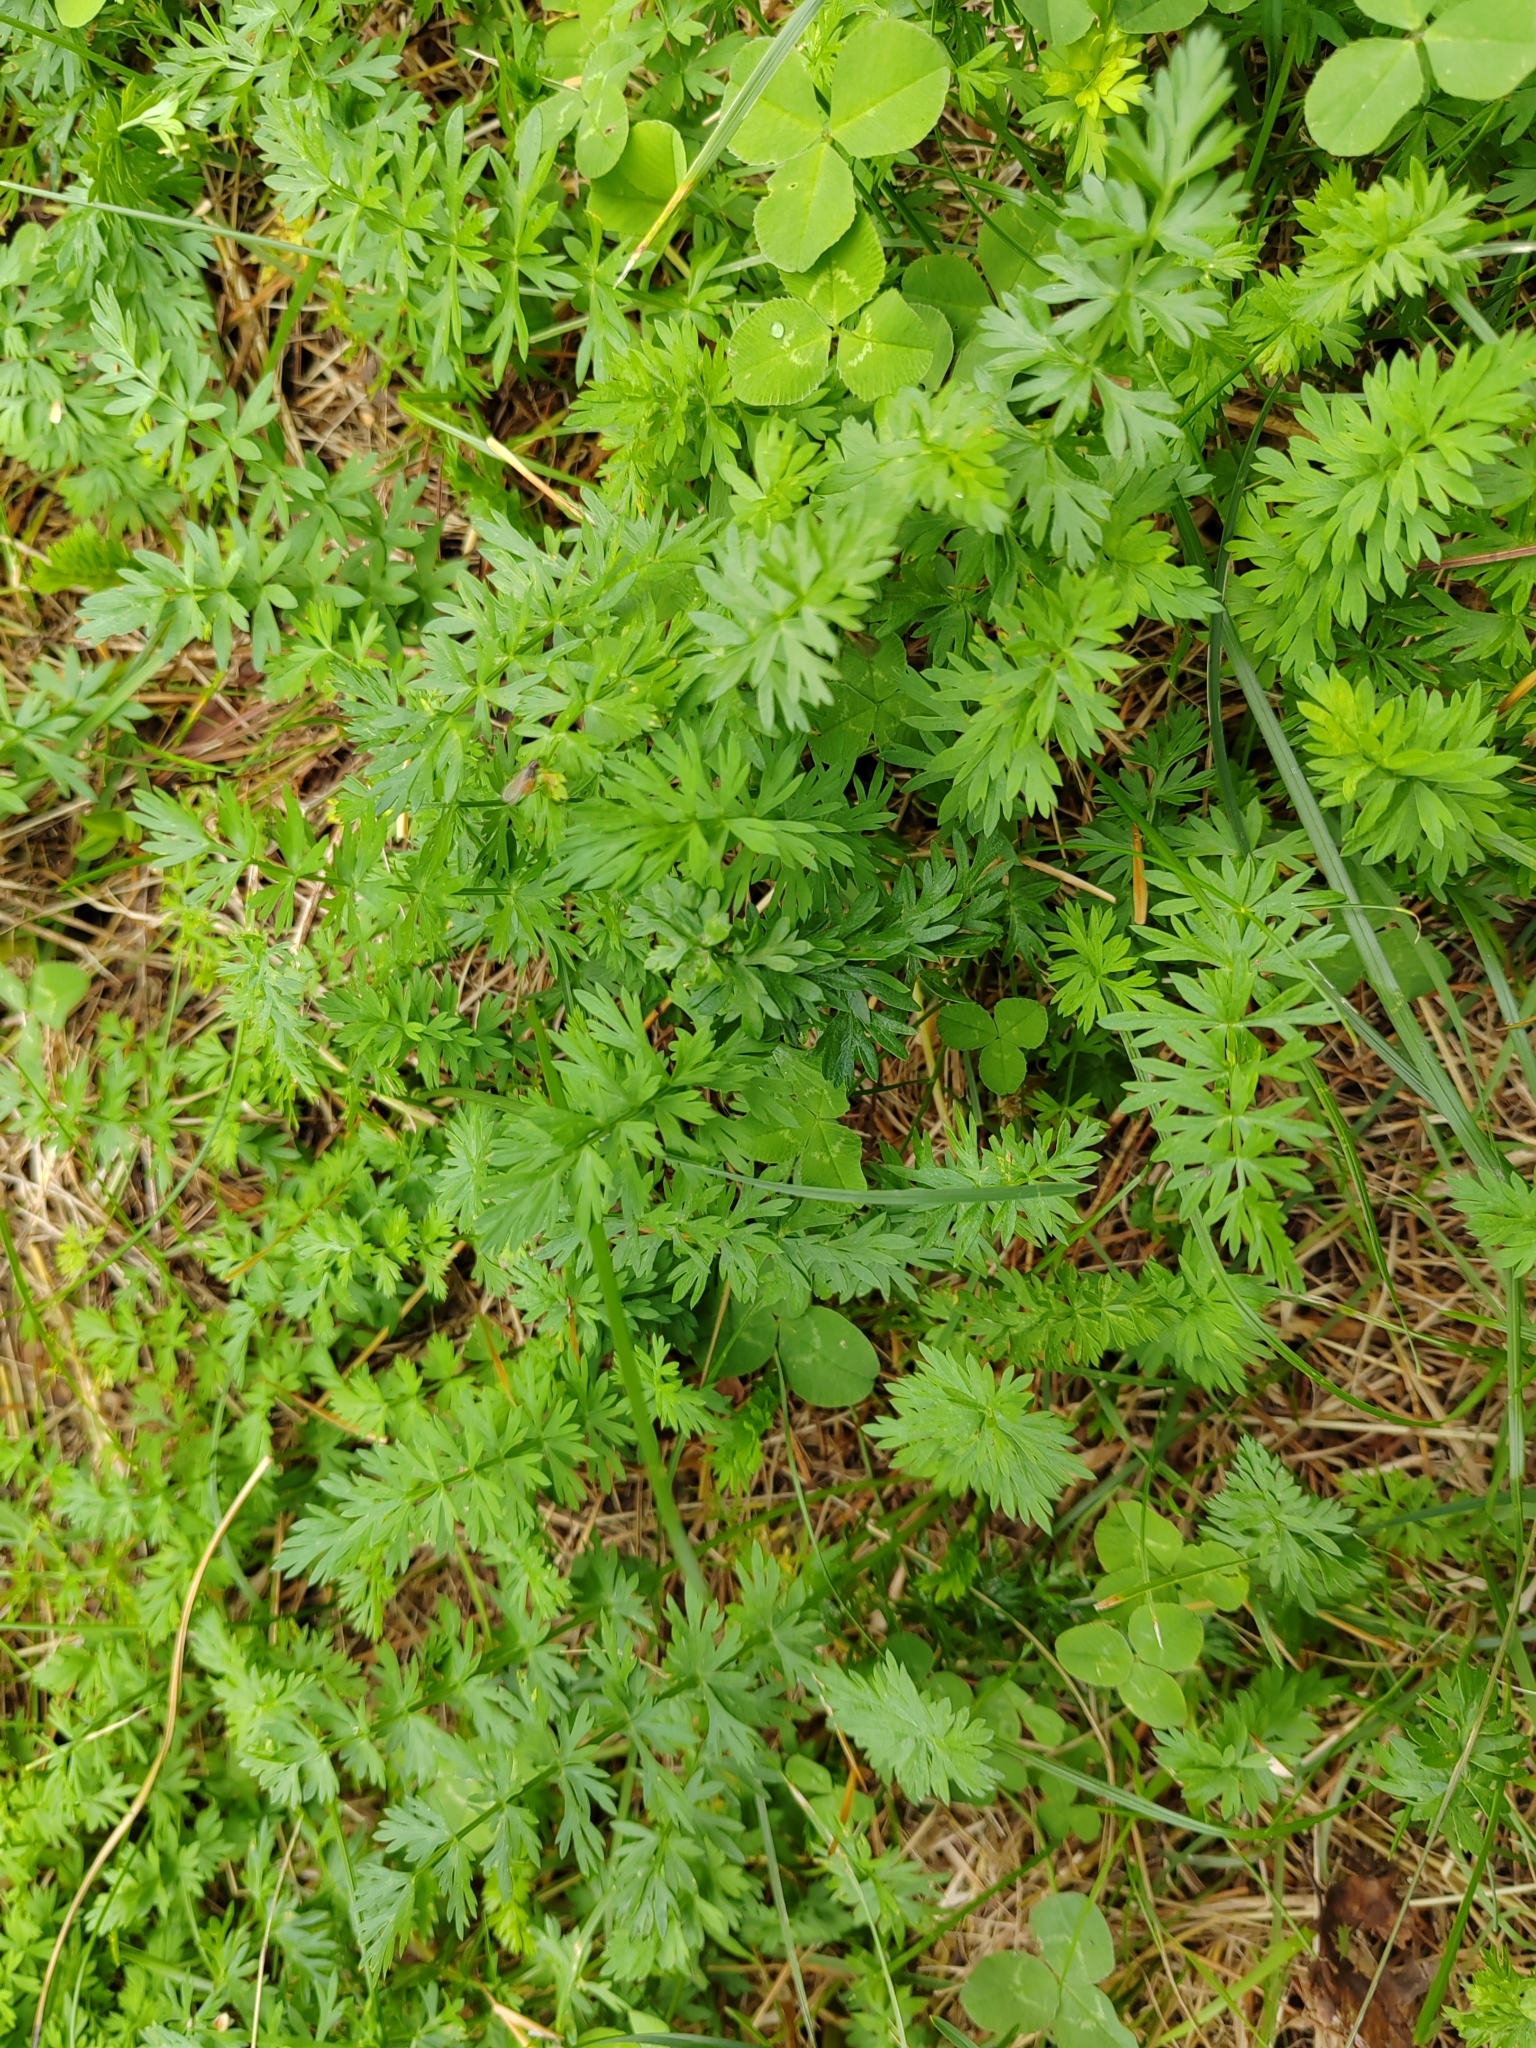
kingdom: Plantae
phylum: Tracheophyta
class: Magnoliopsida
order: Apiales
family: Apiaceae
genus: Carum
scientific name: Carum carvi
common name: Caraway
